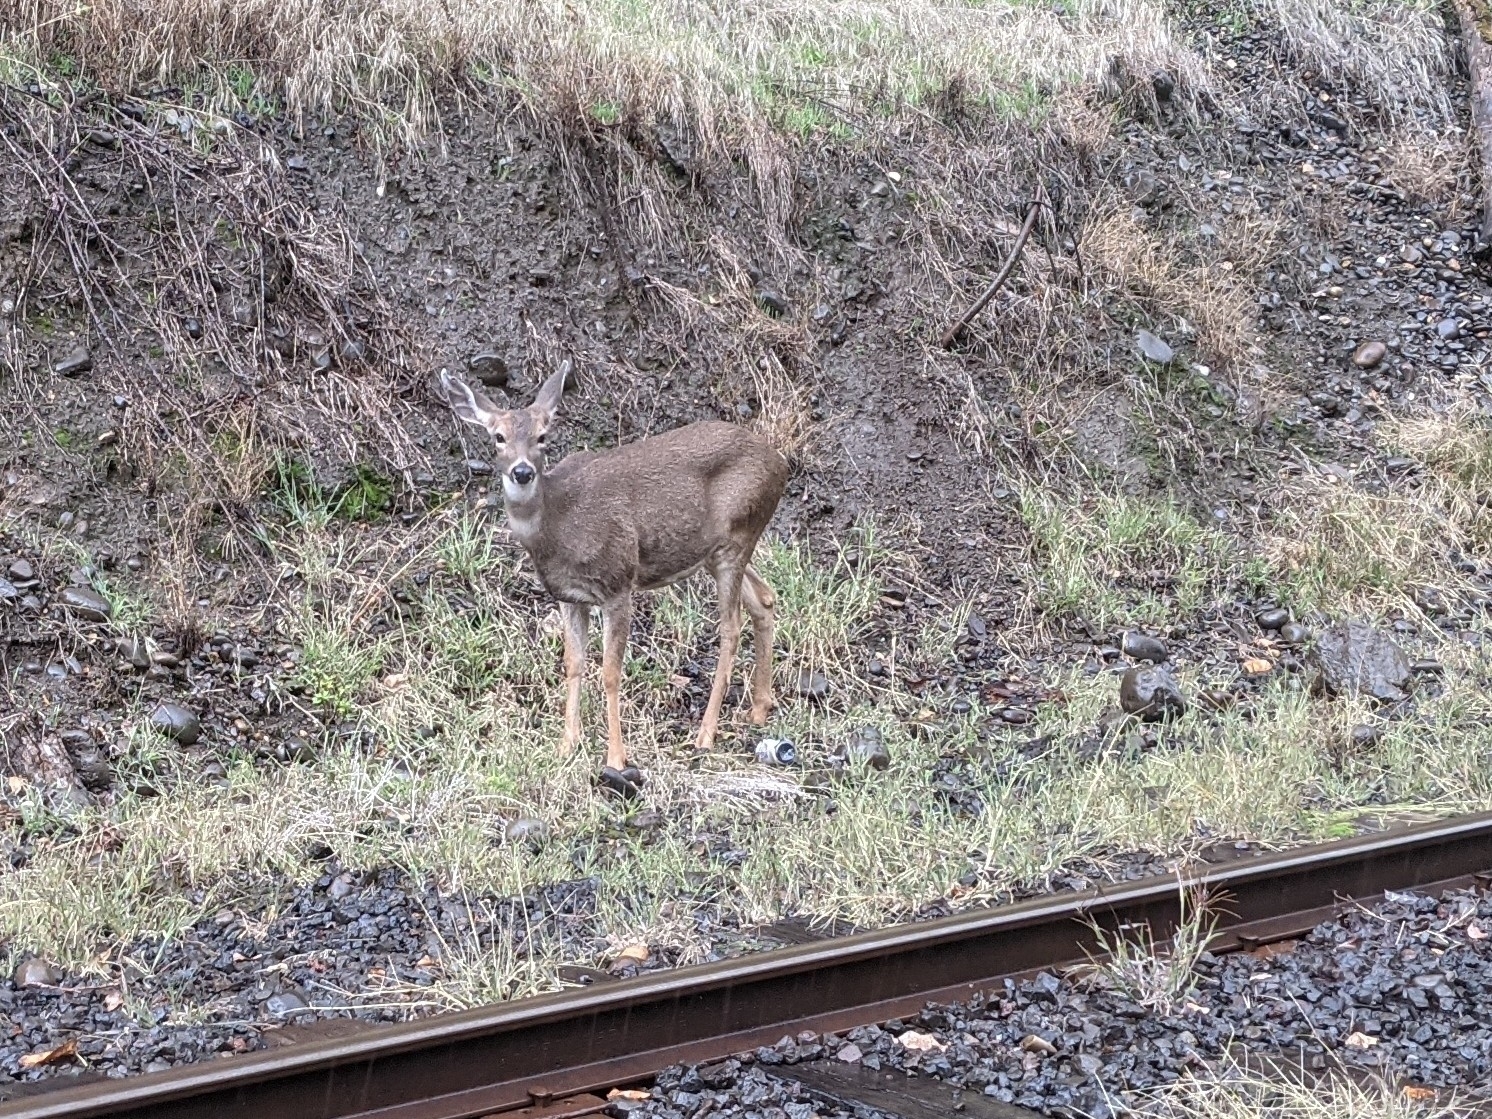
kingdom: Animalia
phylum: Chordata
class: Mammalia
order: Artiodactyla
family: Cervidae
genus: Odocoileus
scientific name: Odocoileus hemionus
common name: Mule deer
